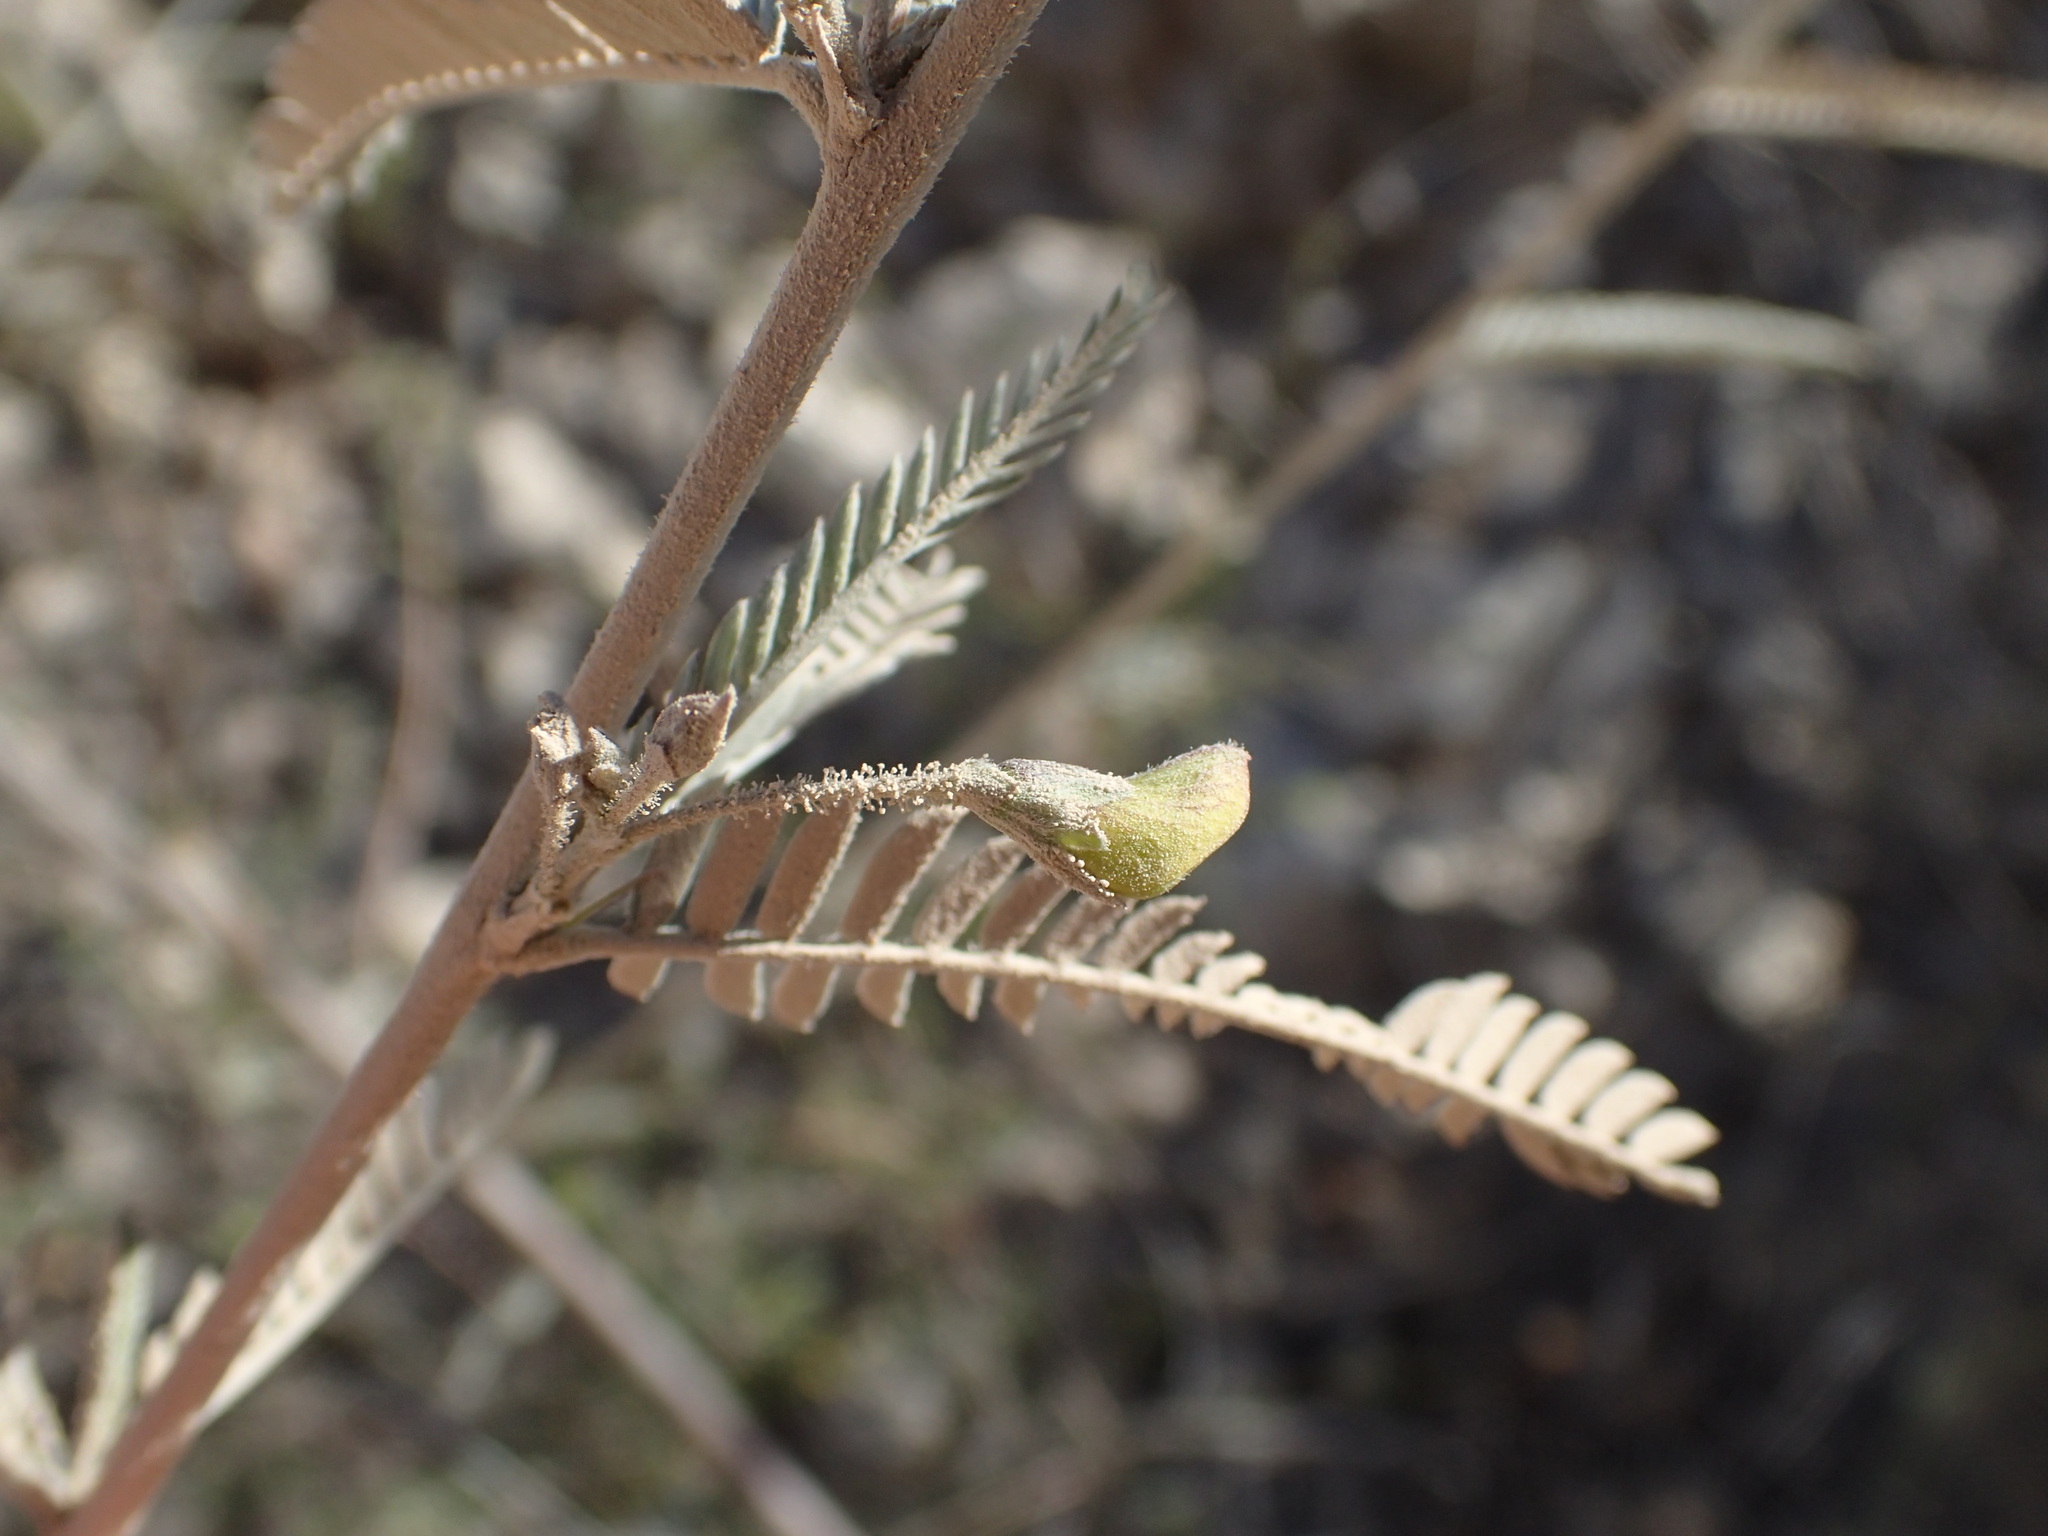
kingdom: Plantae
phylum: Tracheophyta
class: Magnoliopsida
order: Fabales
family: Fabaceae
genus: Ctenodon
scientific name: Ctenodon niveus
